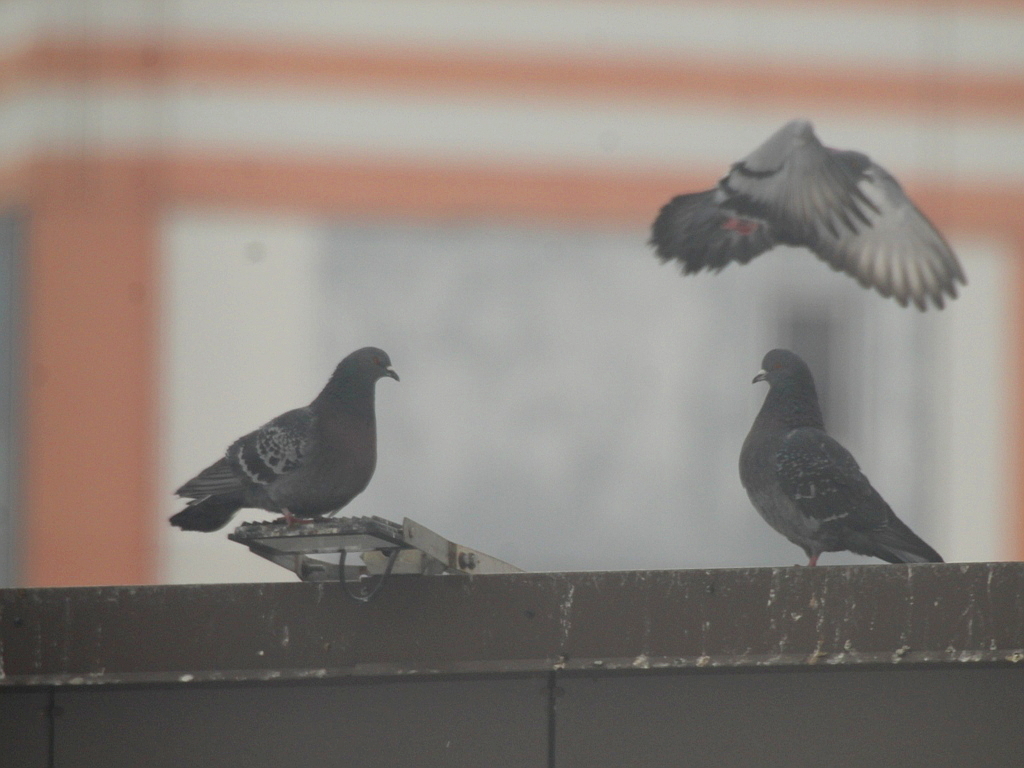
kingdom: Animalia
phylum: Chordata
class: Aves
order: Columbiformes
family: Columbidae
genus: Columba
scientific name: Columba livia
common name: Rock pigeon
